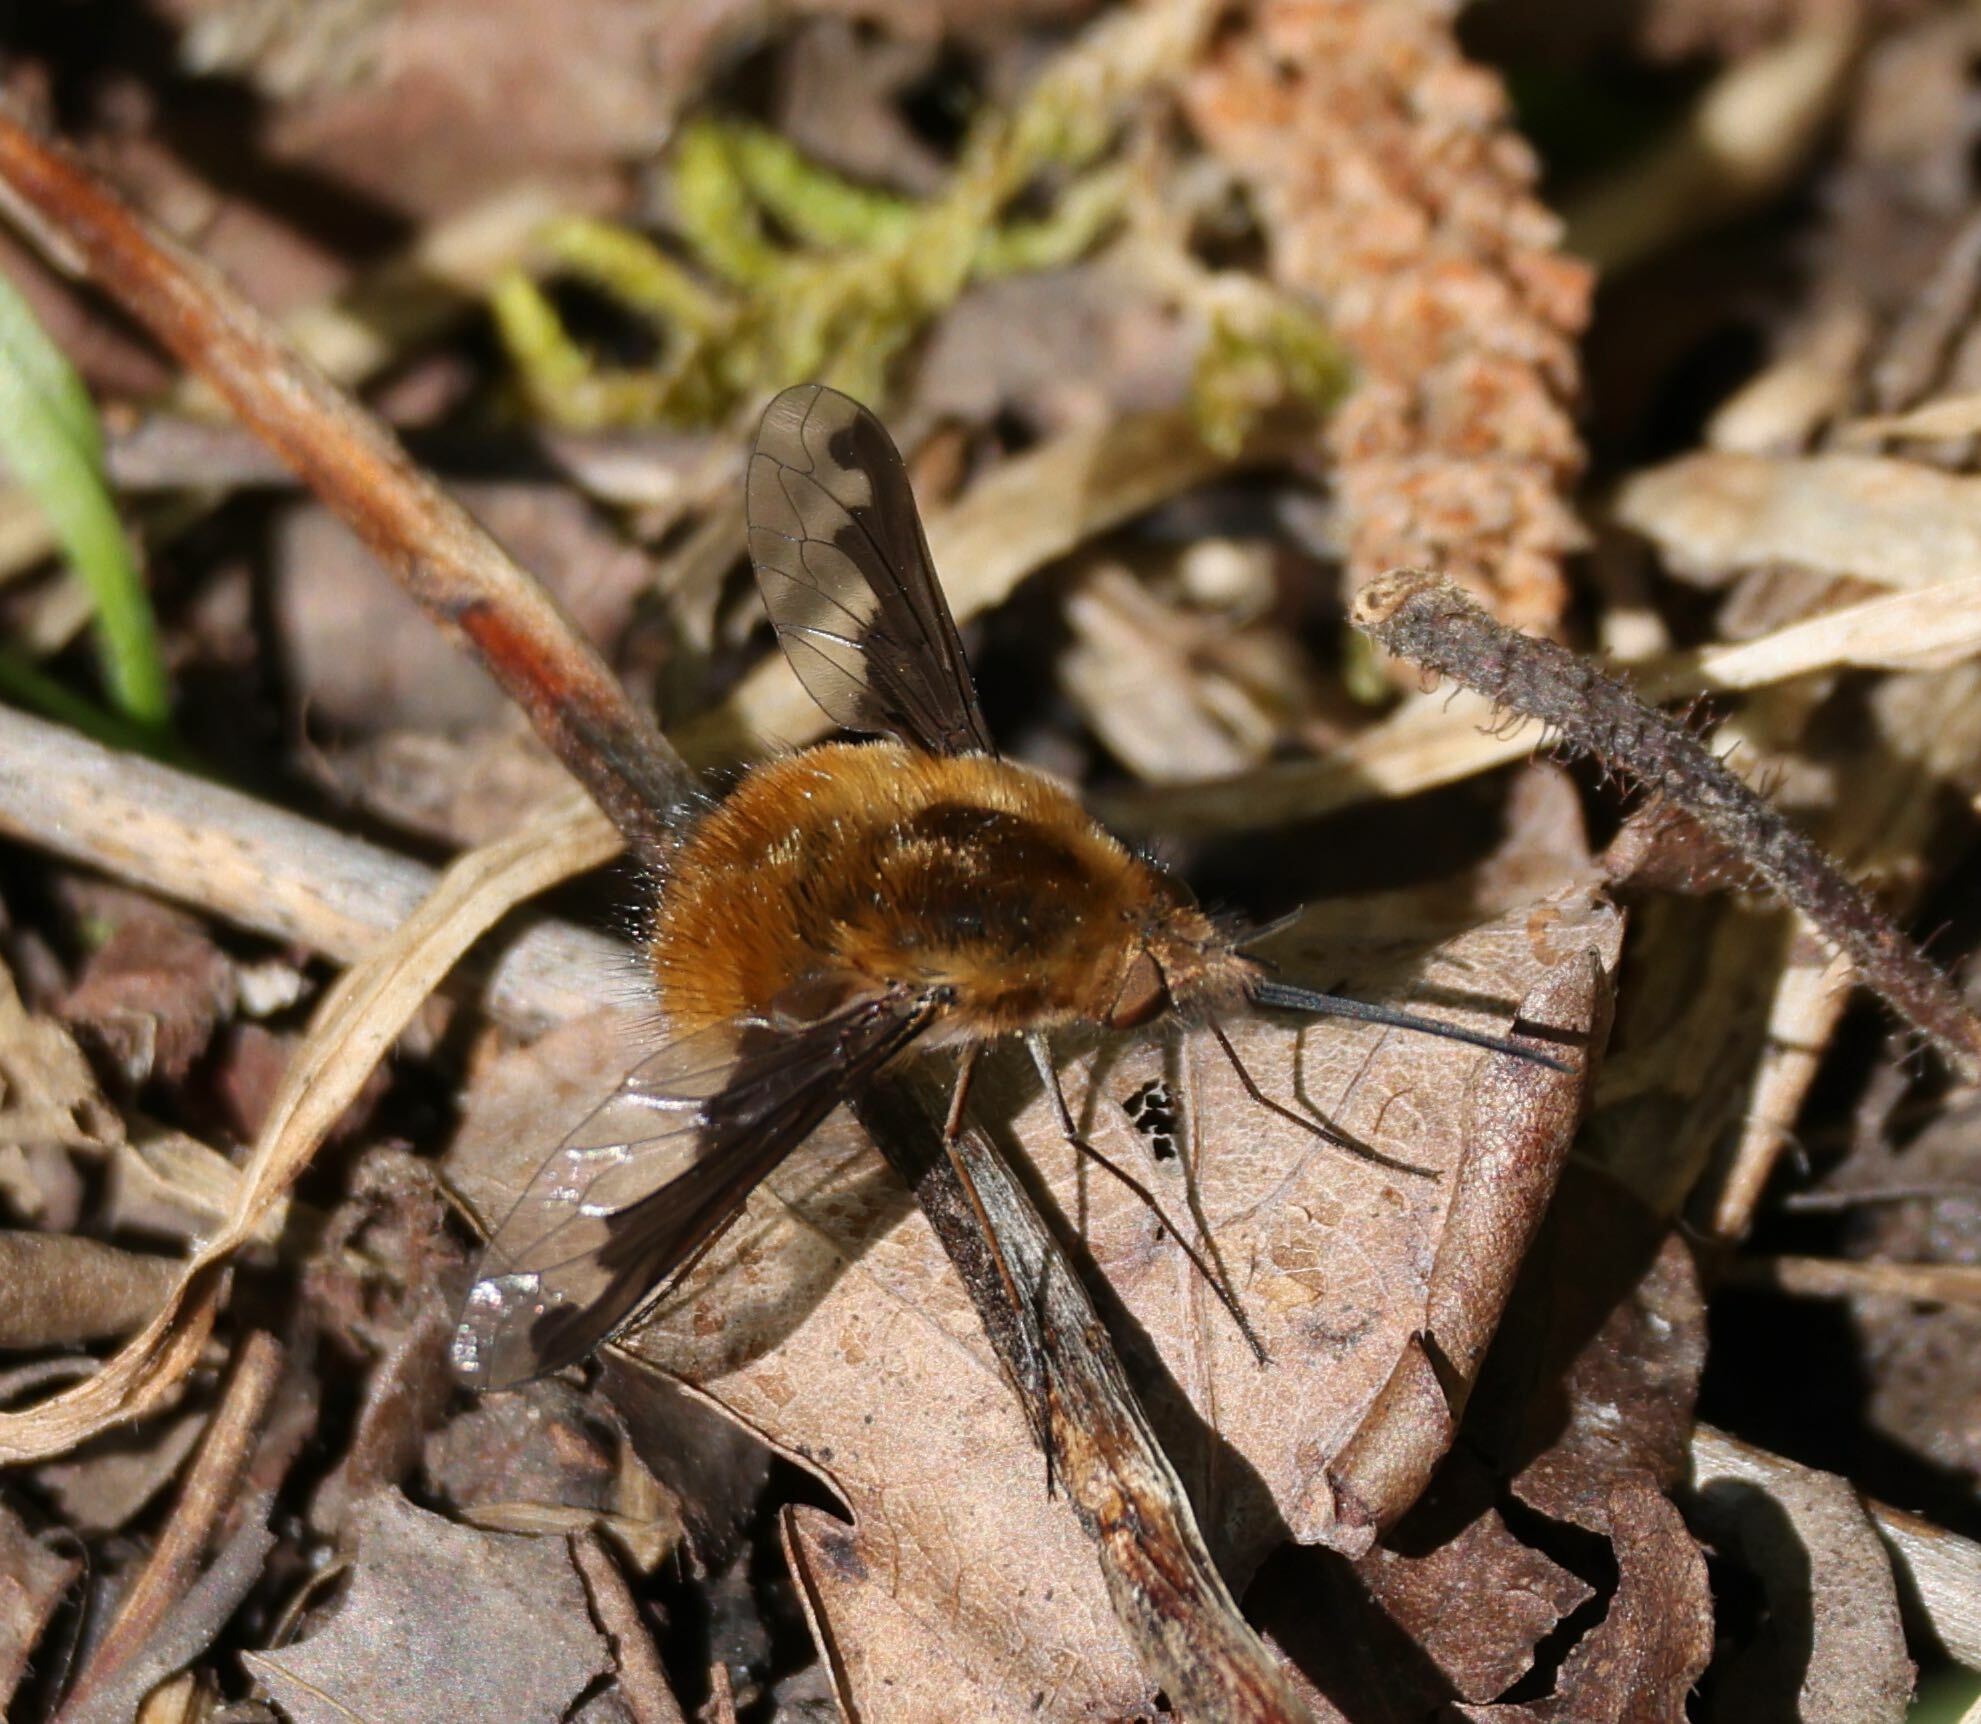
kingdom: Animalia
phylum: Arthropoda
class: Insecta
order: Diptera
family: Bombyliidae
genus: Bombylius
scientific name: Bombylius major
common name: Bee fly
